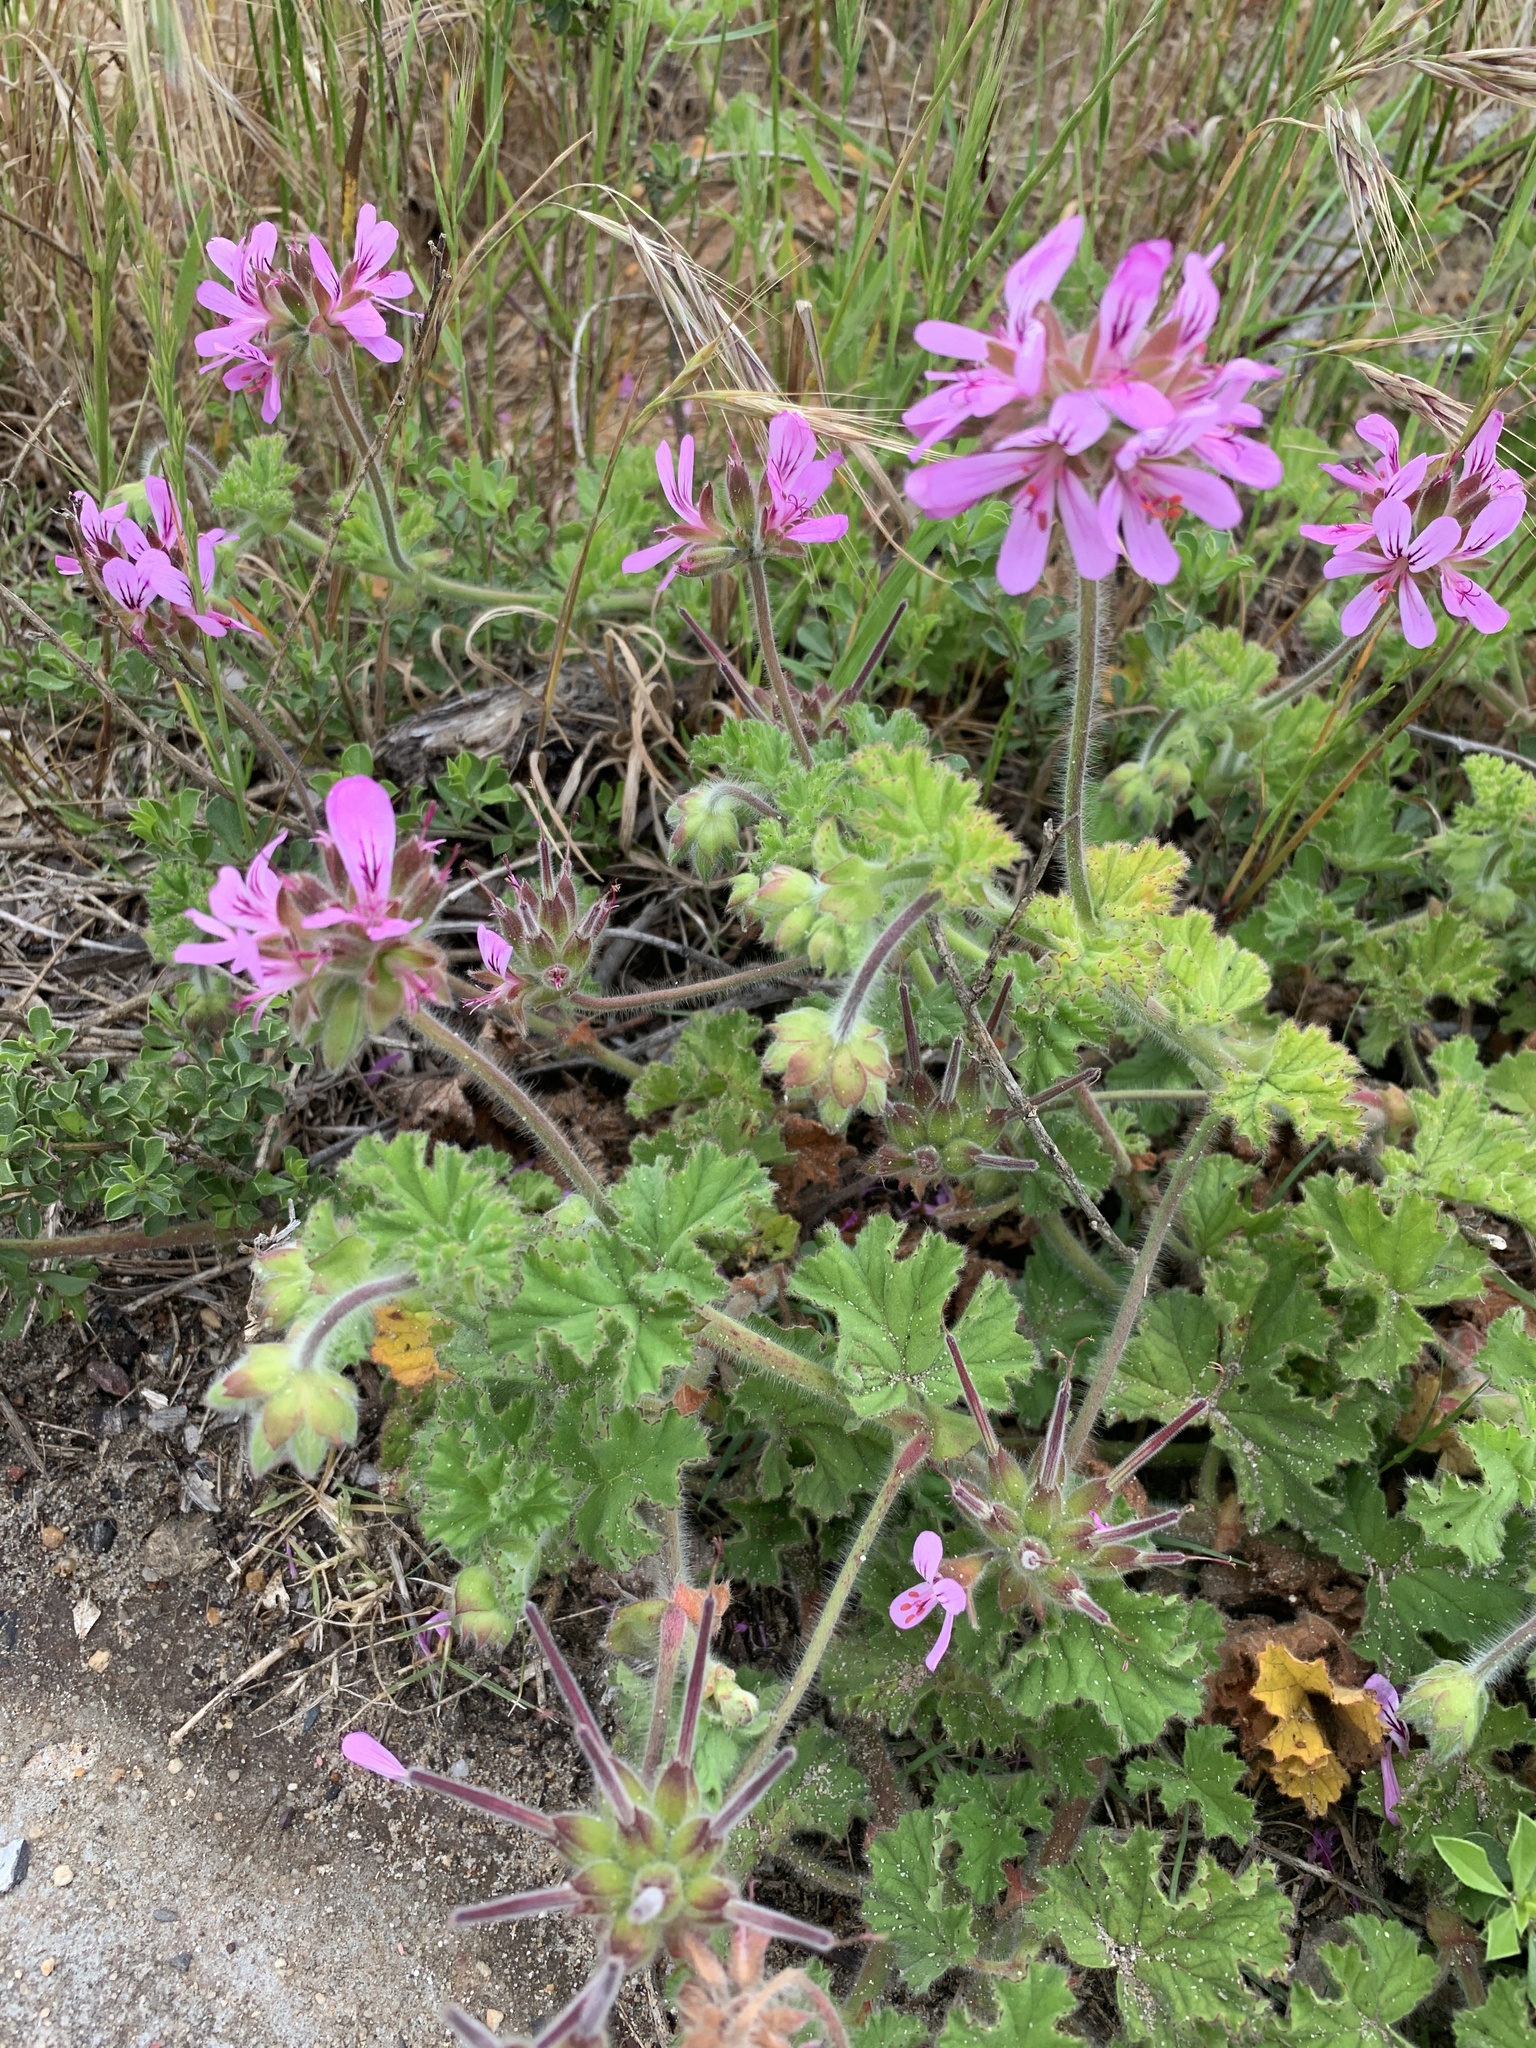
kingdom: Plantae
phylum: Tracheophyta
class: Magnoliopsida
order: Geraniales
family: Geraniaceae
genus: Pelargonium
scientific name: Pelargonium capitatum
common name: Rose scented geranium
